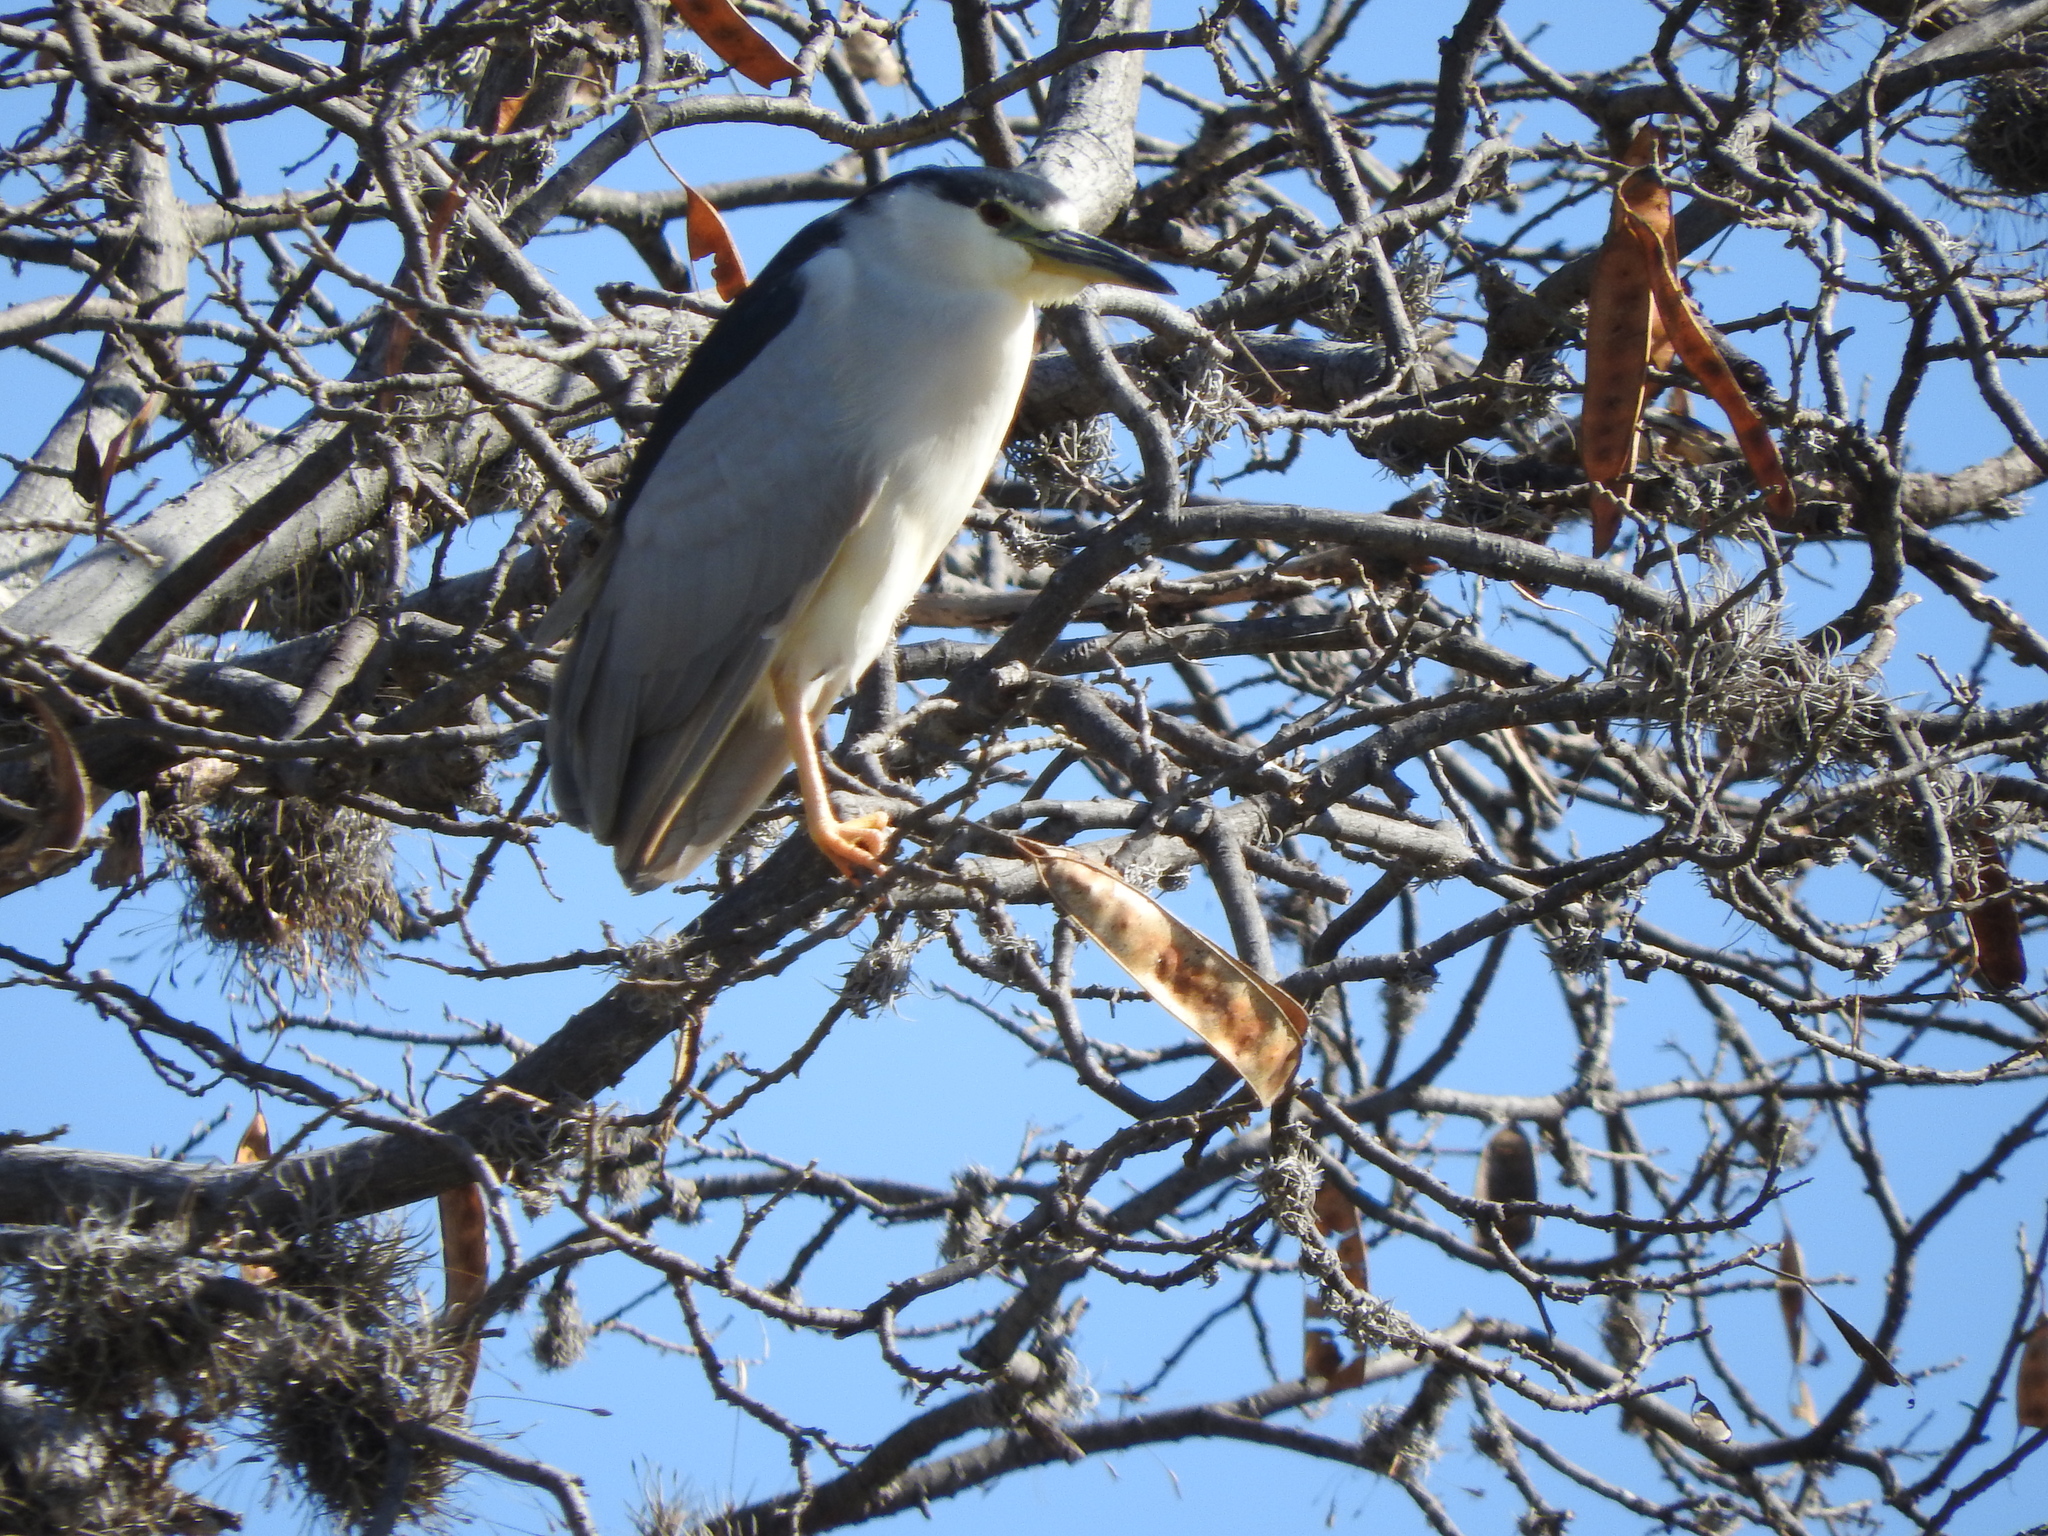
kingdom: Animalia
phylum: Chordata
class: Aves
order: Pelecaniformes
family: Ardeidae
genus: Nycticorax
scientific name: Nycticorax nycticorax
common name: Black-crowned night heron
